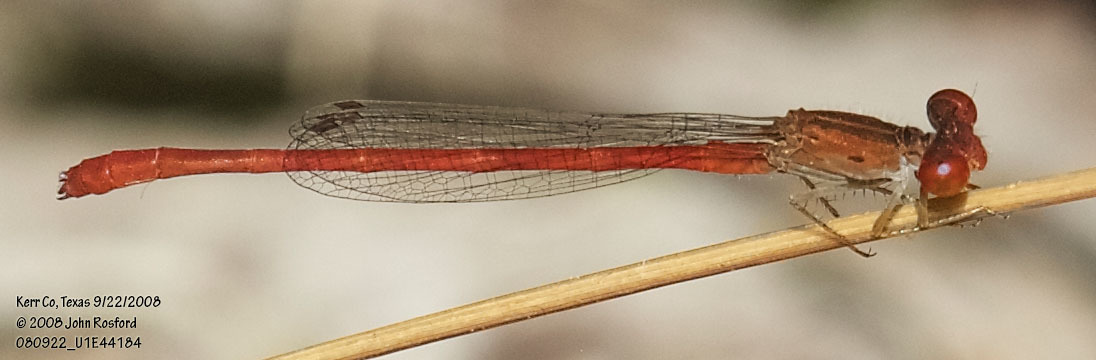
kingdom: Animalia
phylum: Arthropoda
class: Insecta
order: Odonata
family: Coenagrionidae
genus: Telebasis
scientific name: Telebasis salva
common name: Desert firetail
